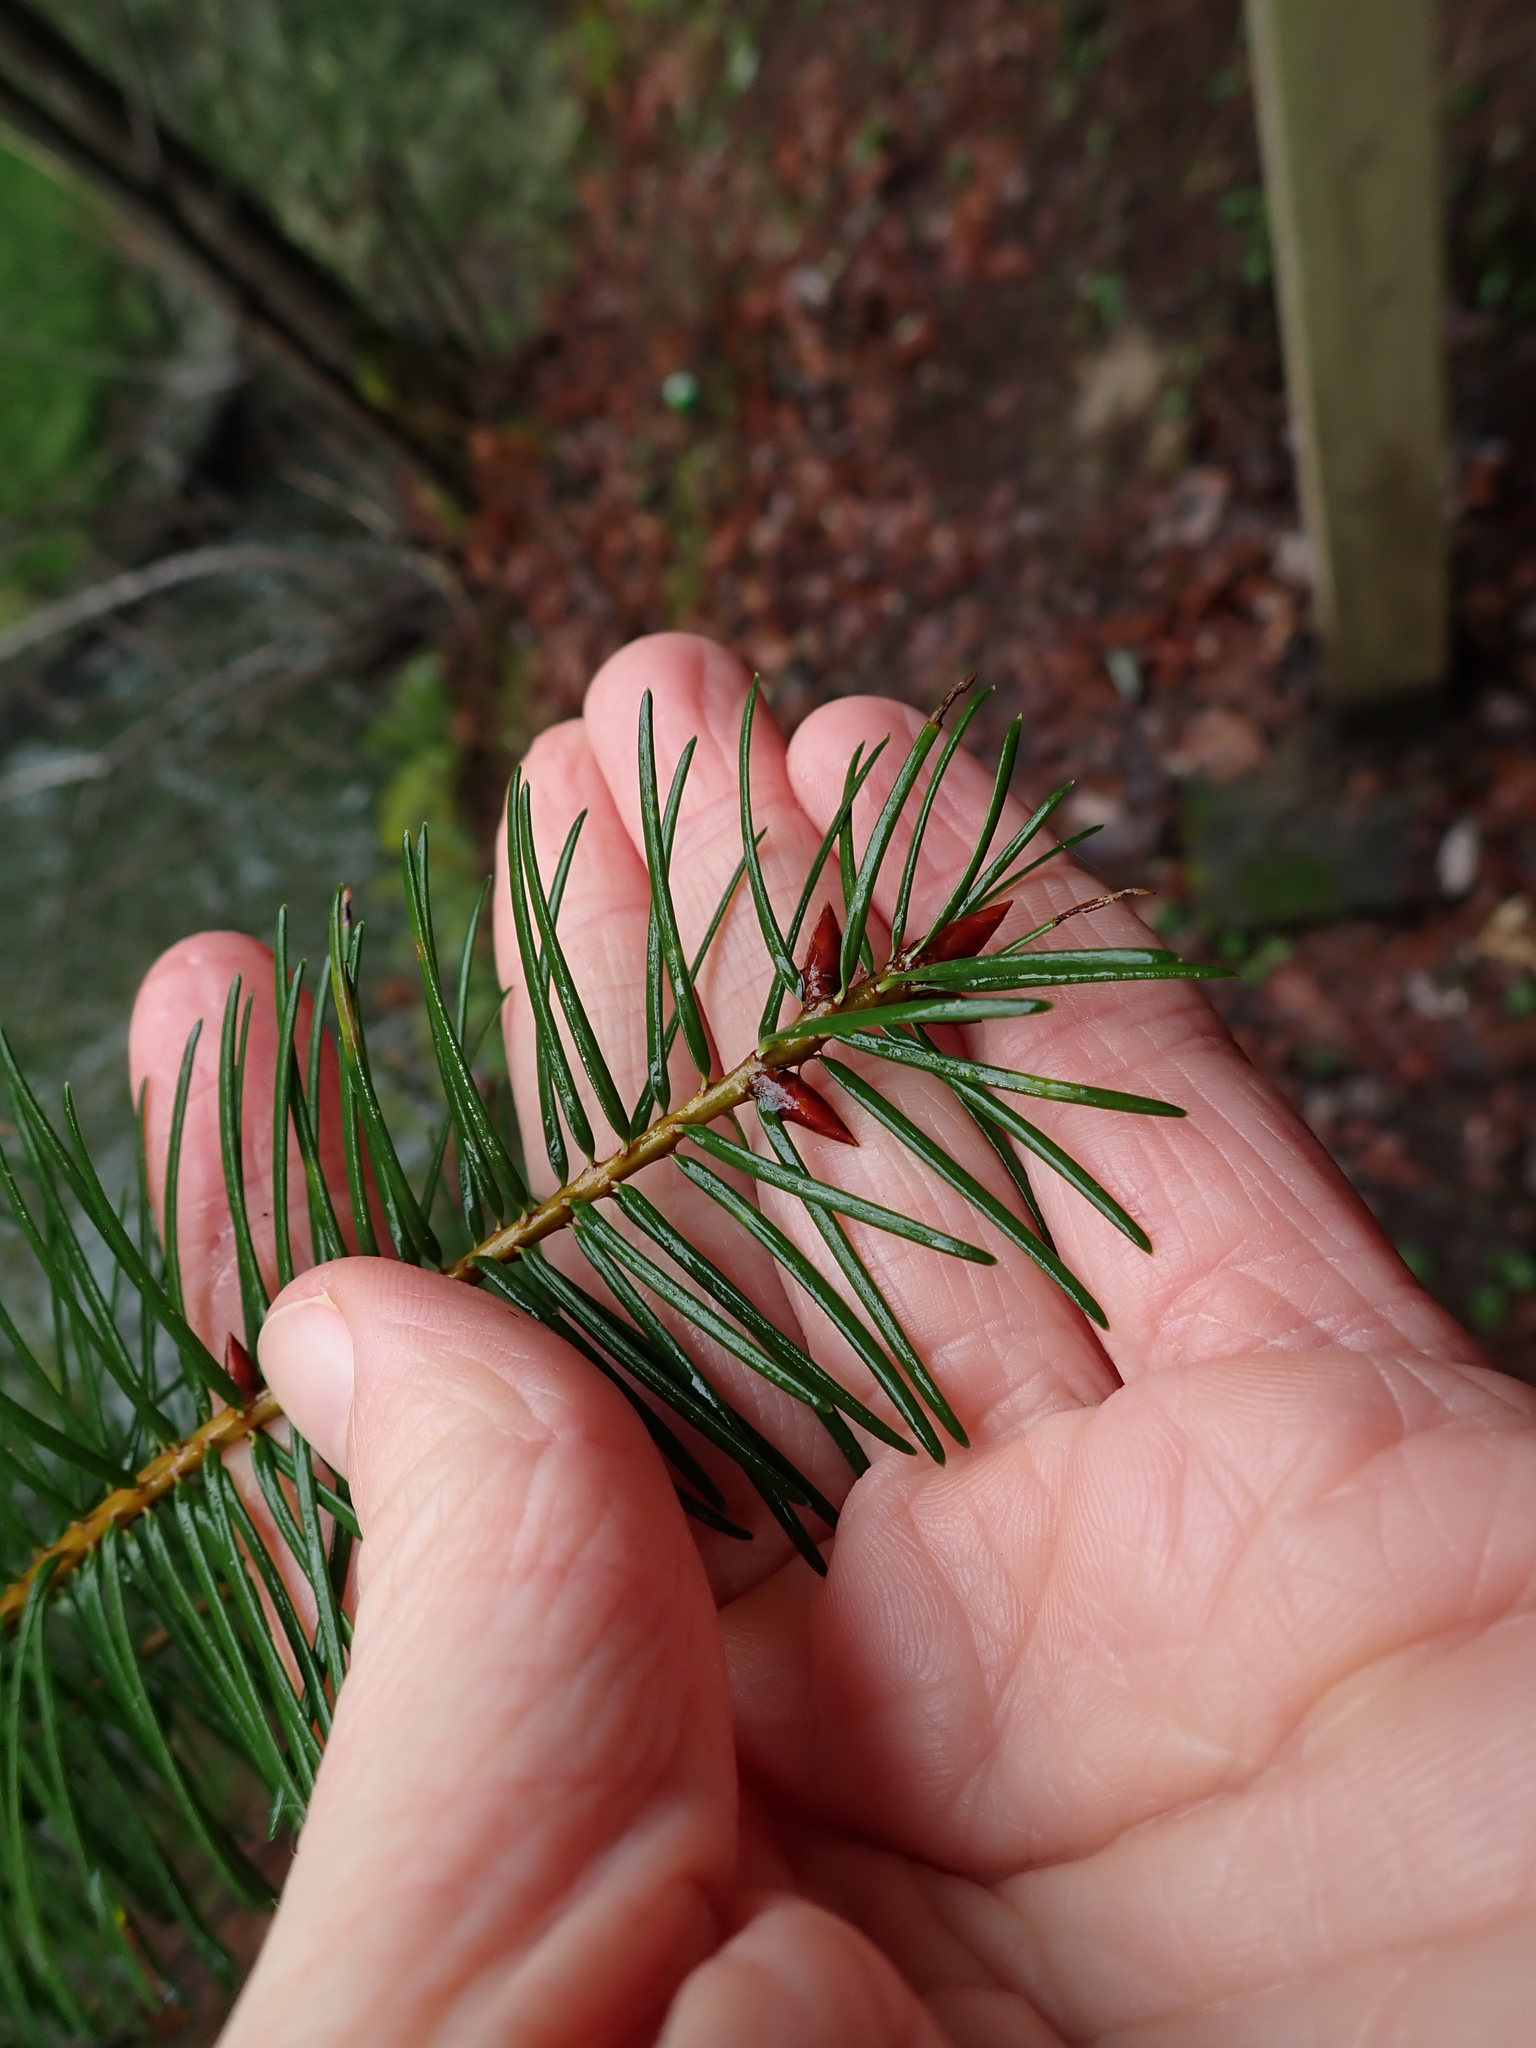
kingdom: Plantae
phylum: Tracheophyta
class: Pinopsida
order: Pinales
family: Pinaceae
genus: Pseudotsuga
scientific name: Pseudotsuga menziesii
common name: Douglas fir
